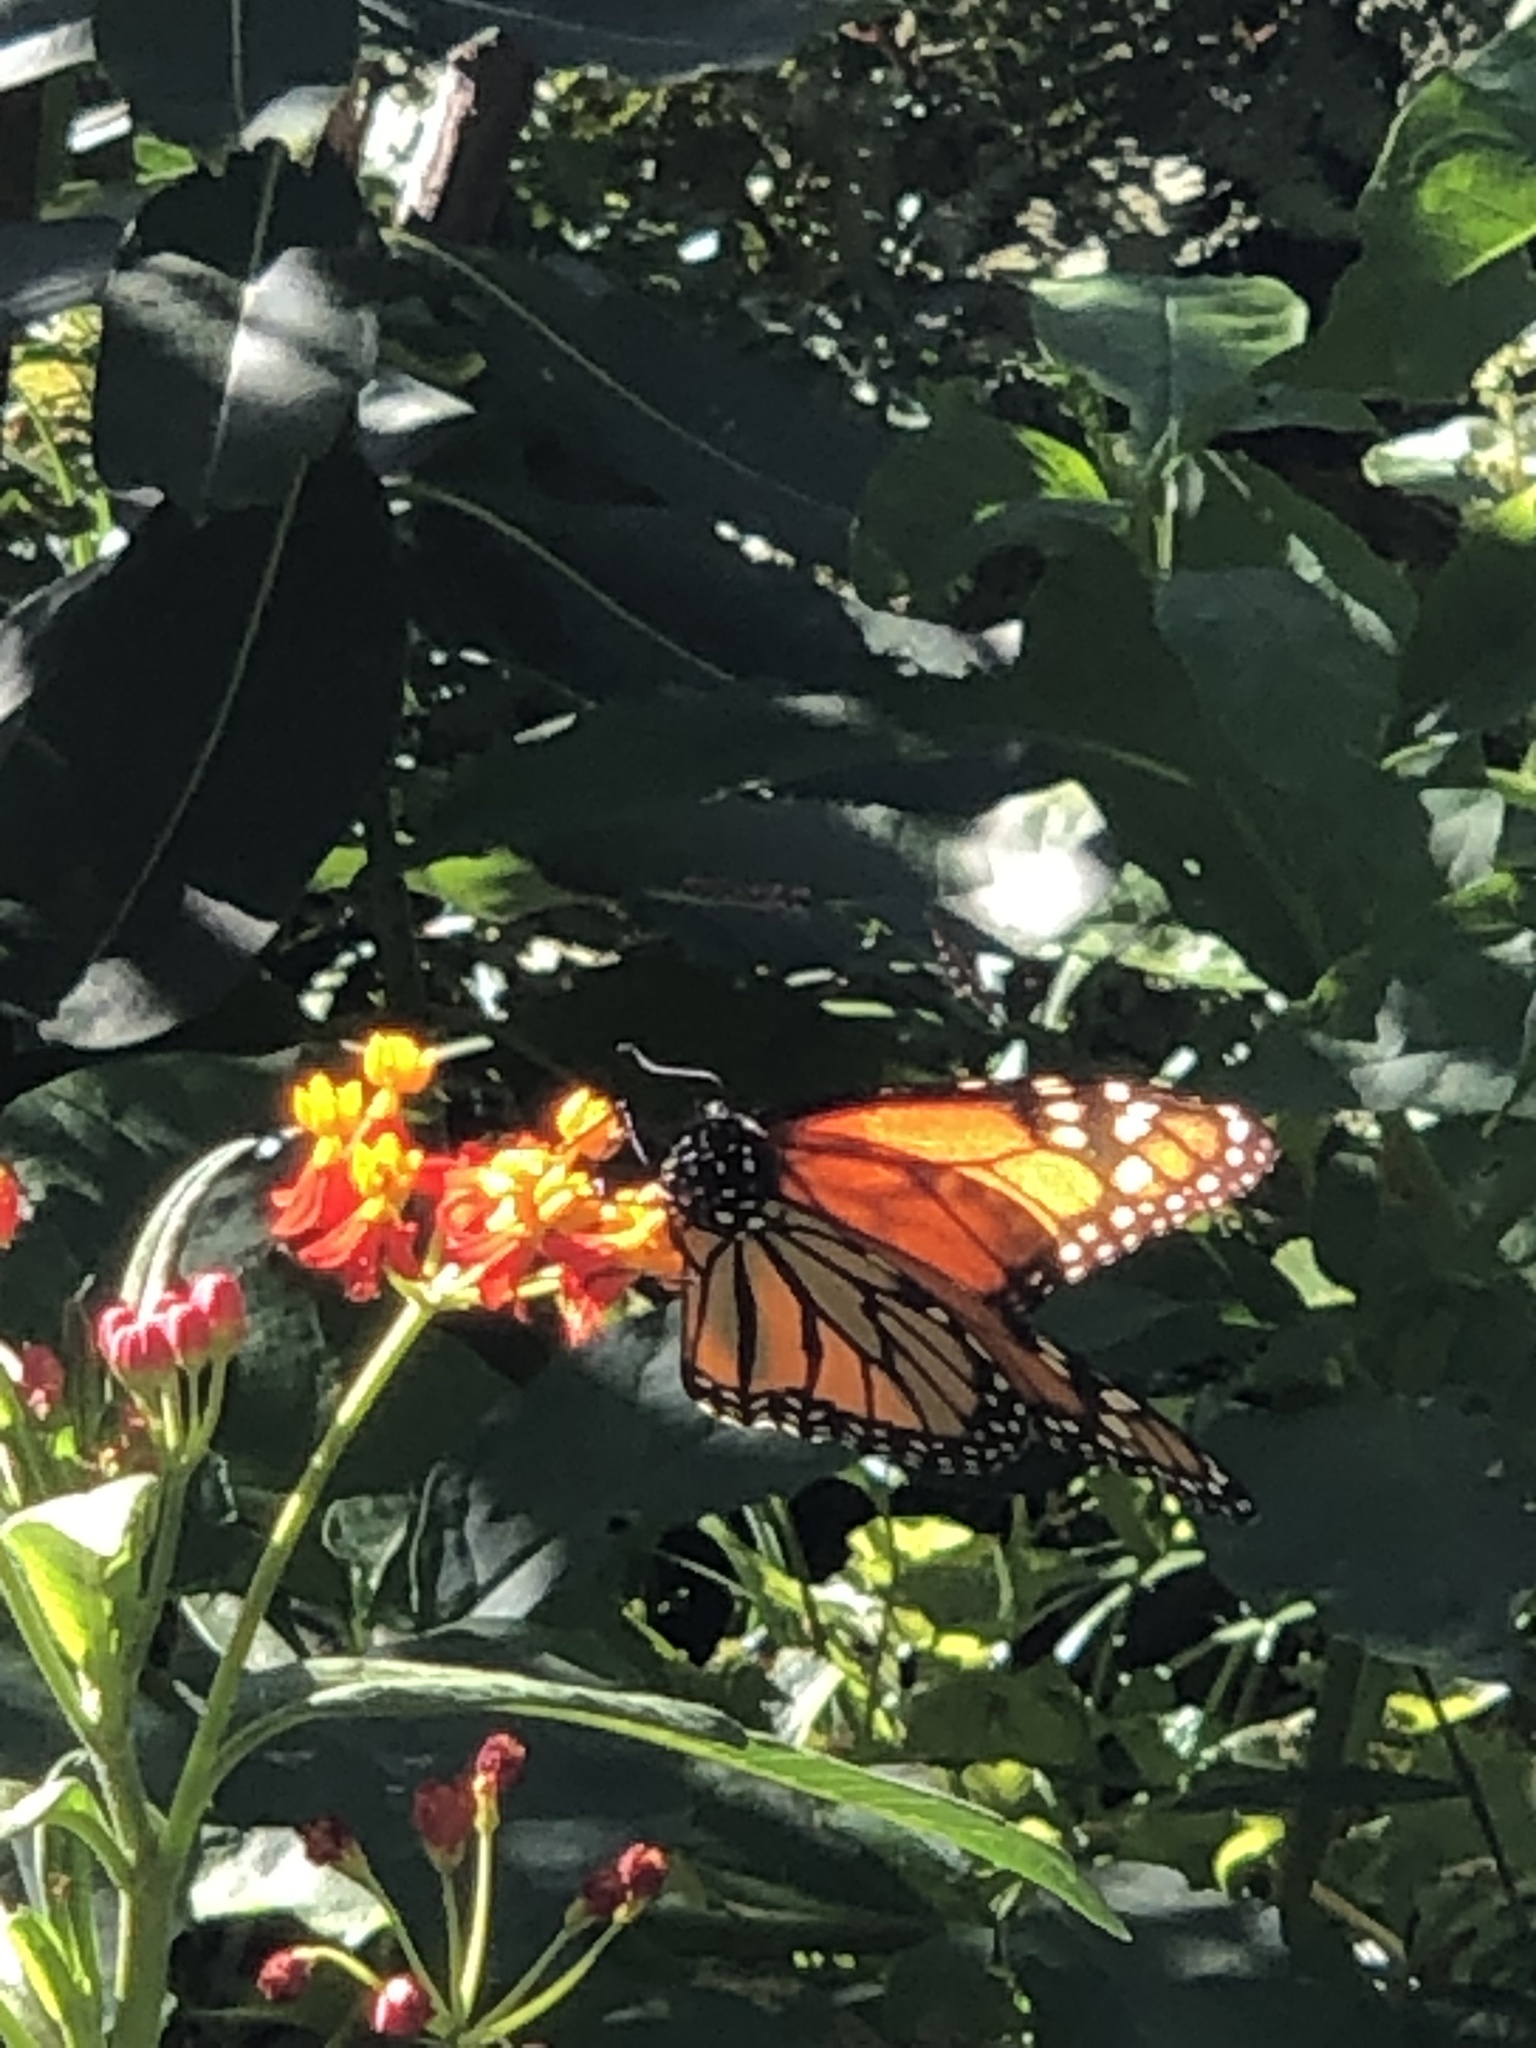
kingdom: Animalia
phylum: Arthropoda
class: Insecta
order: Lepidoptera
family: Nymphalidae
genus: Danaus
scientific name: Danaus plexippus
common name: Monarch
